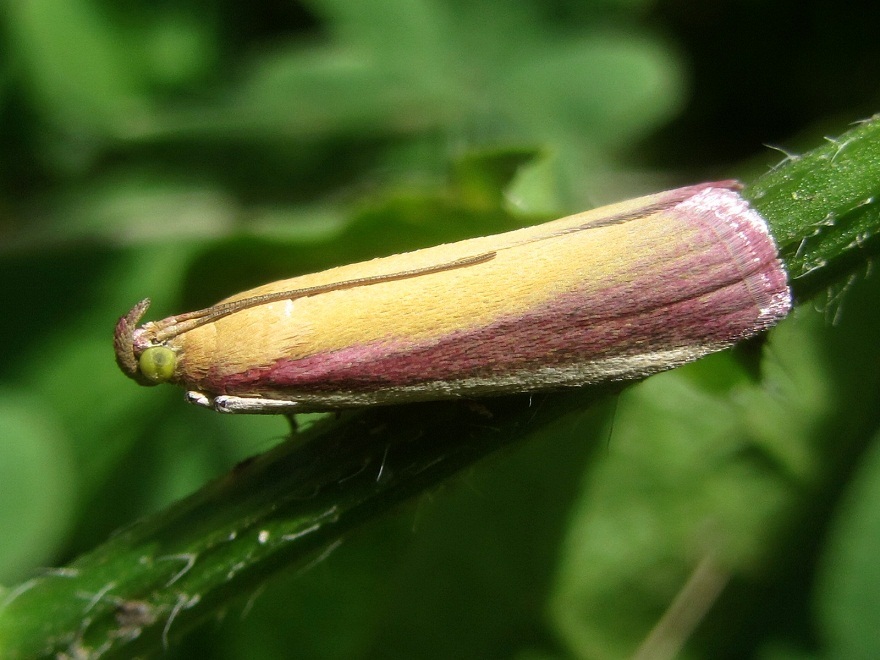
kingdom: Animalia
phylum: Arthropoda
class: Insecta
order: Lepidoptera
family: Pyralidae
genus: Oncocera
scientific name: Oncocera semirubella
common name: Rosy-striped knot-horn
